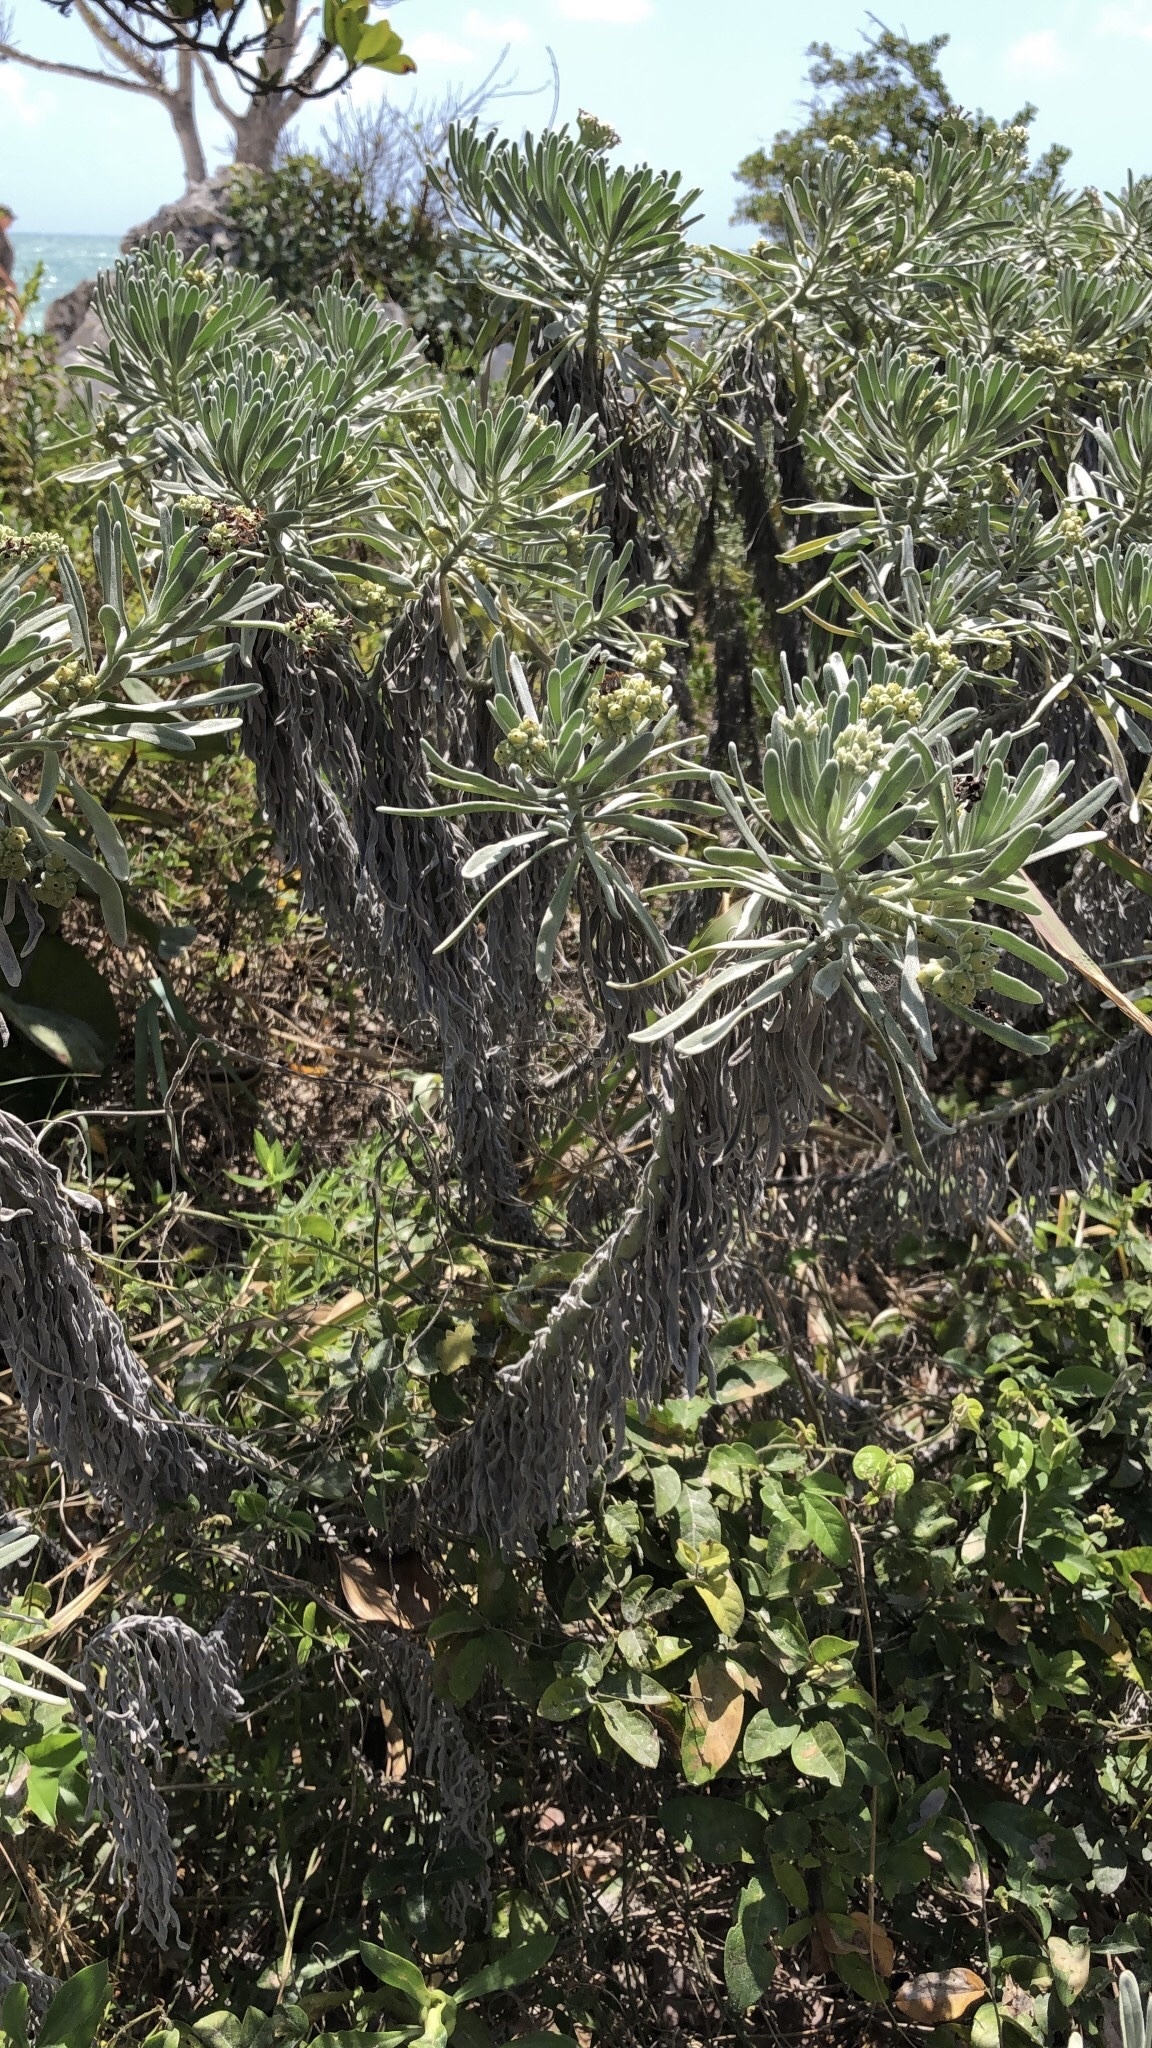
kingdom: Plantae
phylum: Tracheophyta
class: Magnoliopsida
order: Boraginales
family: Heliotropiaceae
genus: Tournefortia
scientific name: Tournefortia gnaphalodes
